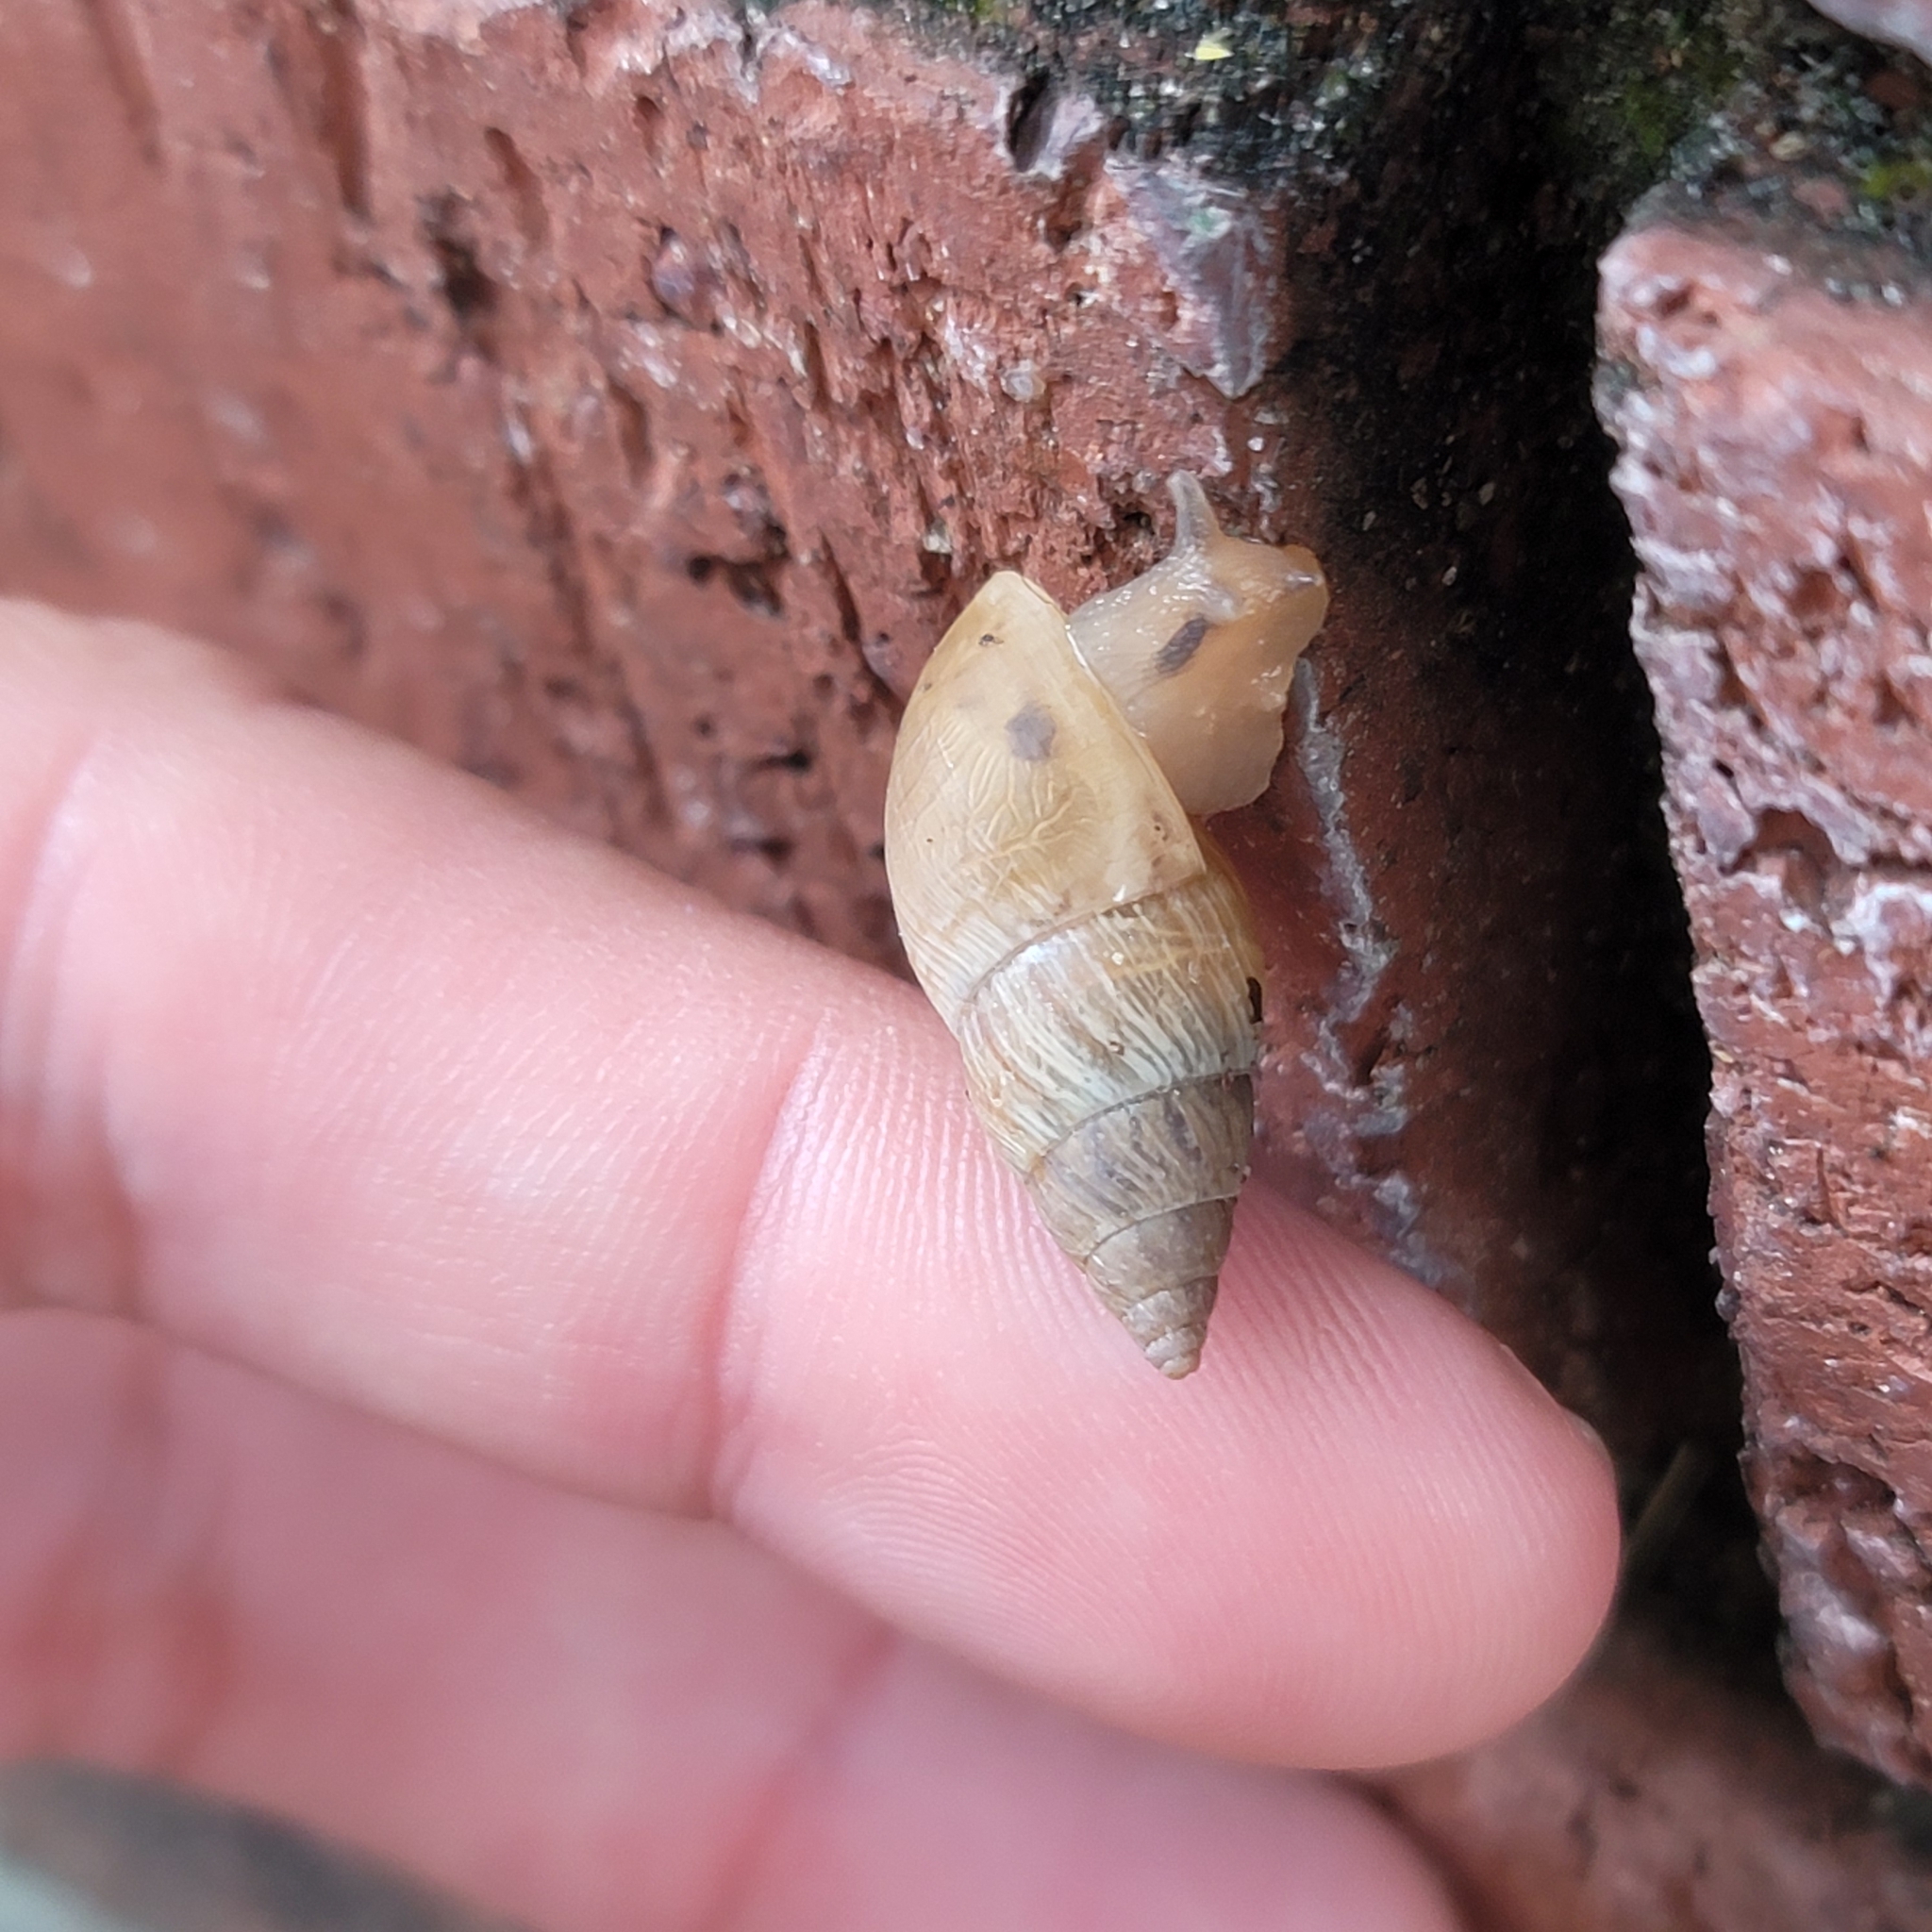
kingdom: Animalia
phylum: Mollusca
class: Gastropoda
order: Stylommatophora
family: Bulimulidae
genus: Bulimulus
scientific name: Bulimulus bonariensis
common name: Snail
